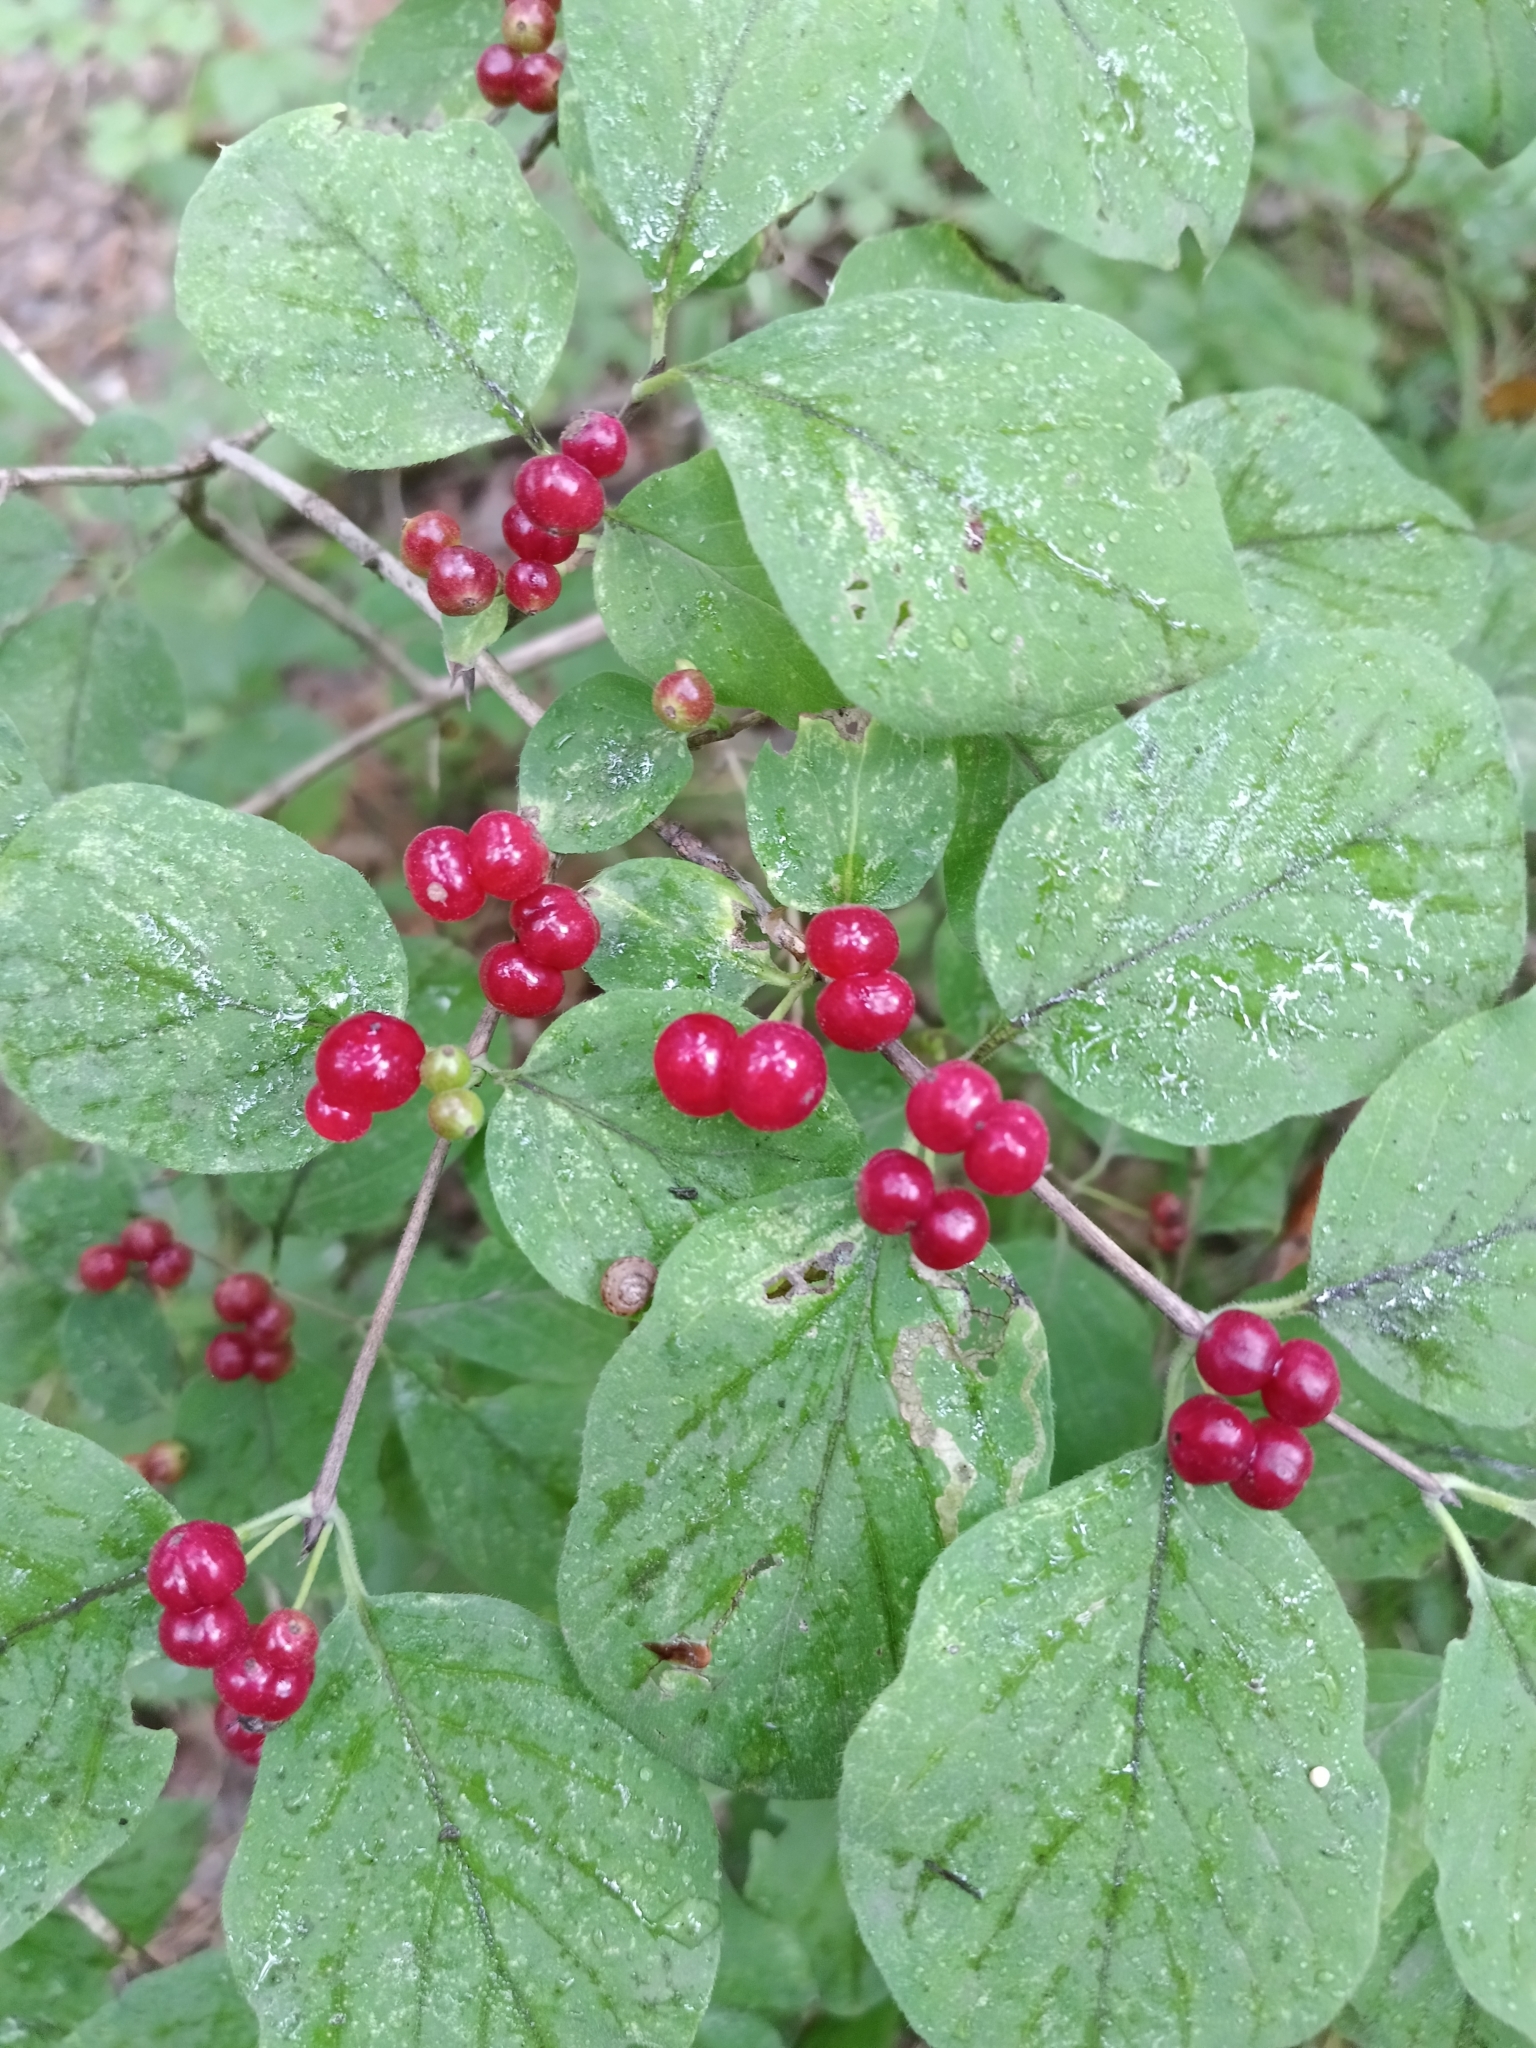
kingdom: Plantae
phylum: Tracheophyta
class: Magnoliopsida
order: Dipsacales
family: Caprifoliaceae
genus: Lonicera
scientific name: Lonicera xylosteum
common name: Fly honeysuckle
